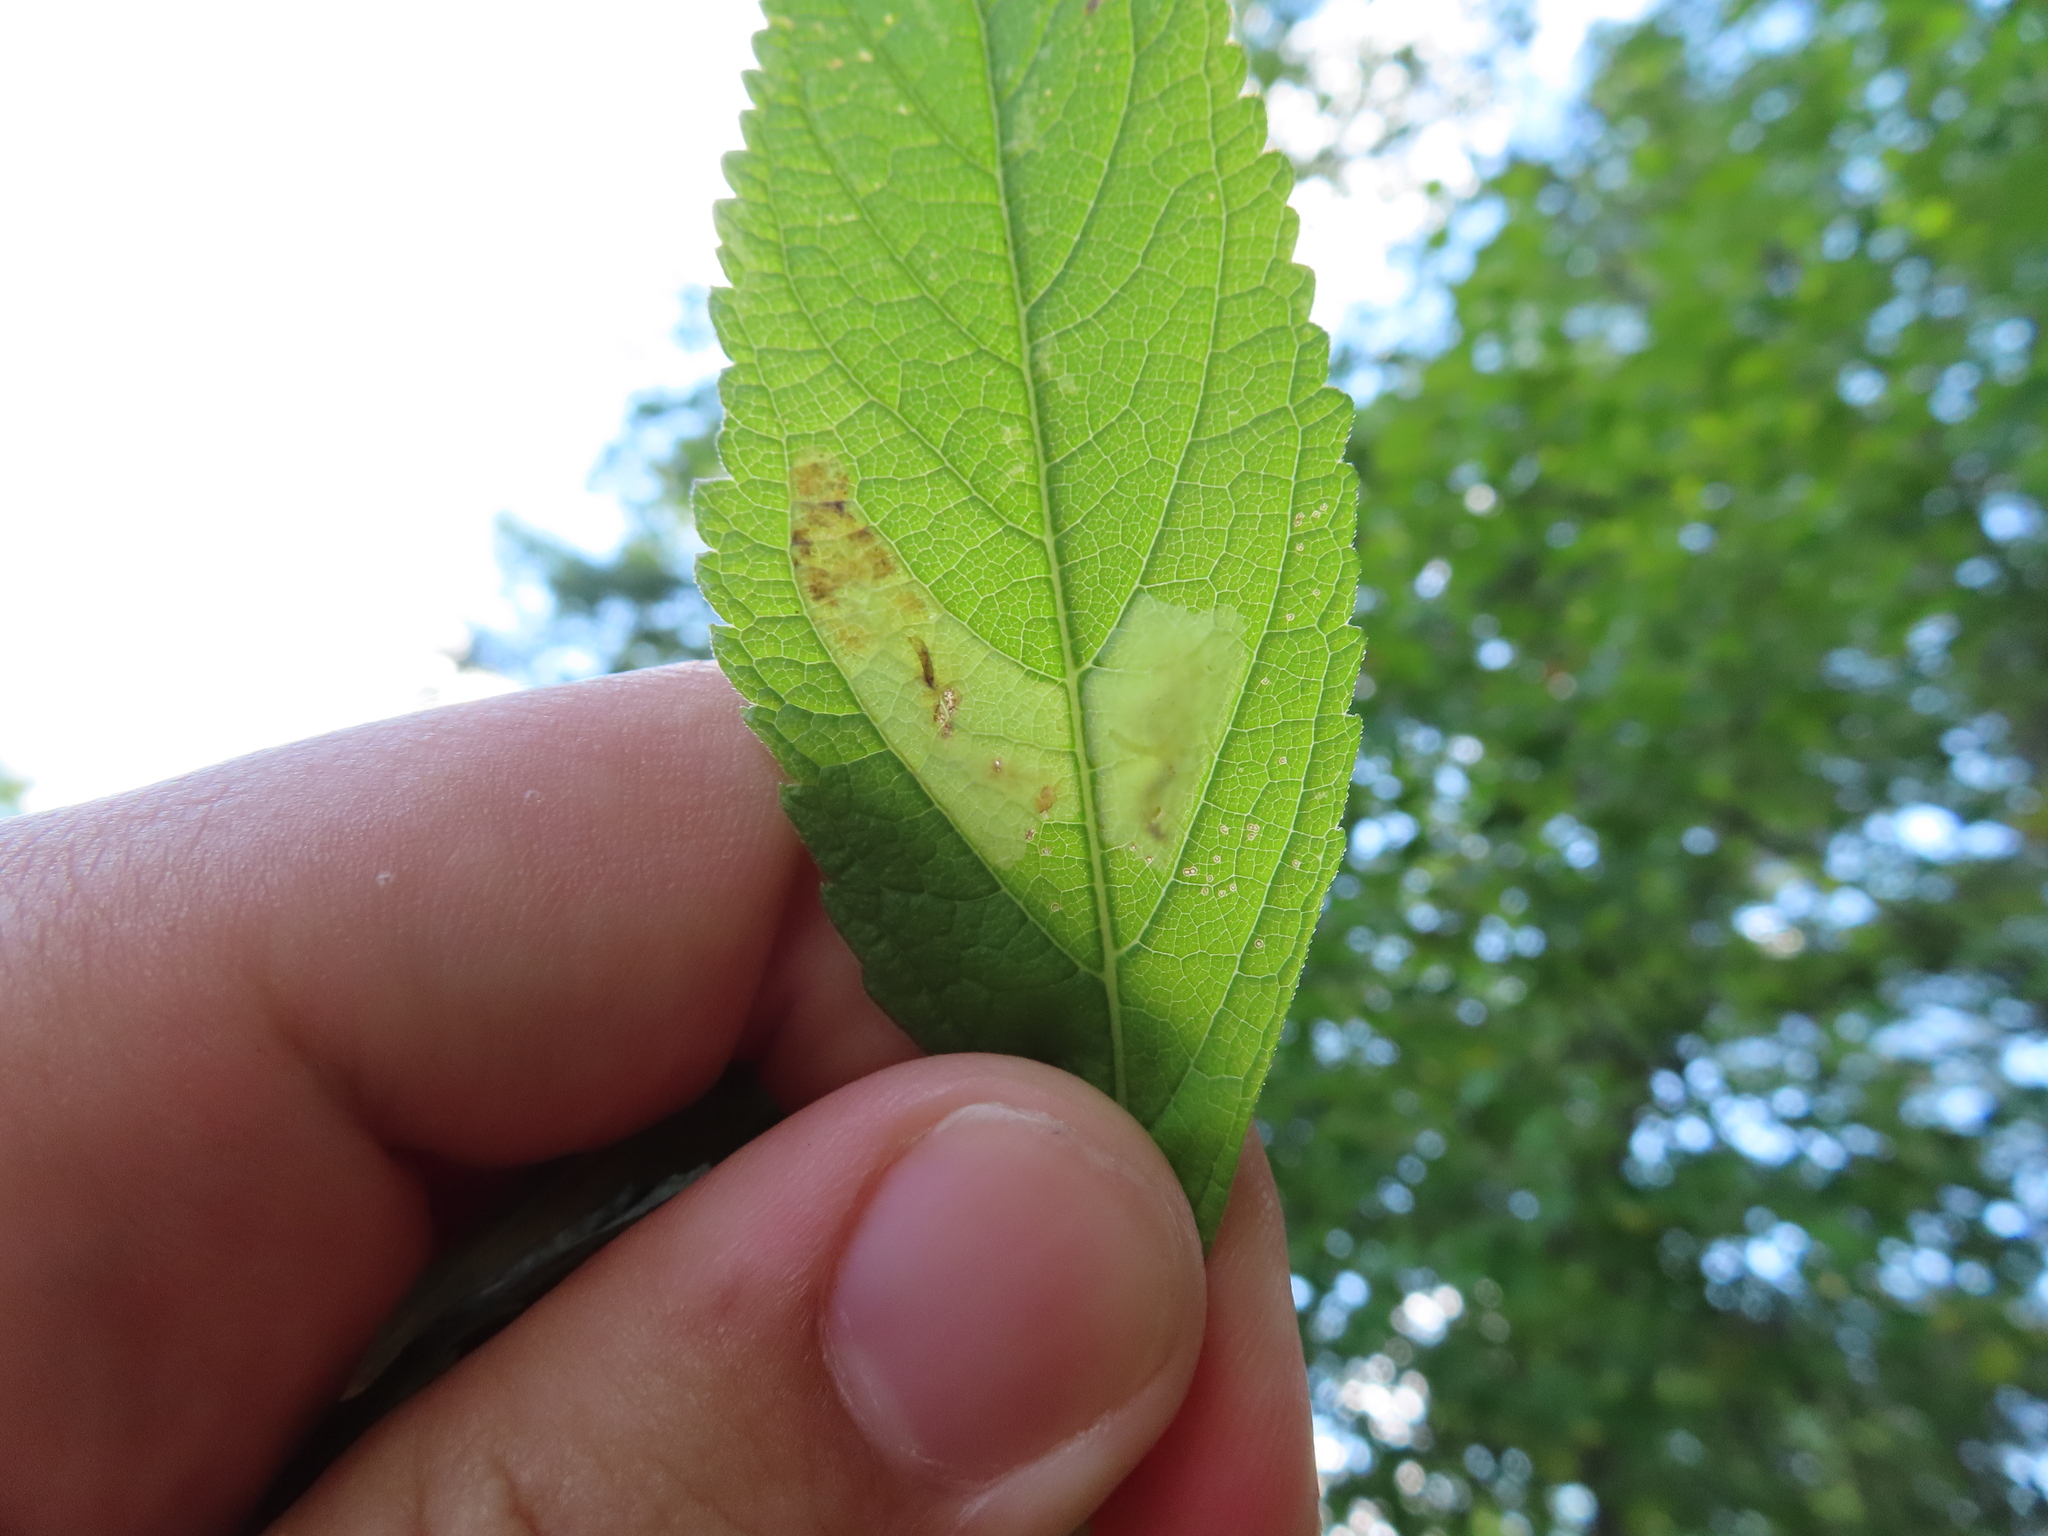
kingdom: Animalia
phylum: Arthropoda
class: Insecta
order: Diptera
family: Agromyzidae
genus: Calycomyza
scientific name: Calycomyza flavinotum
